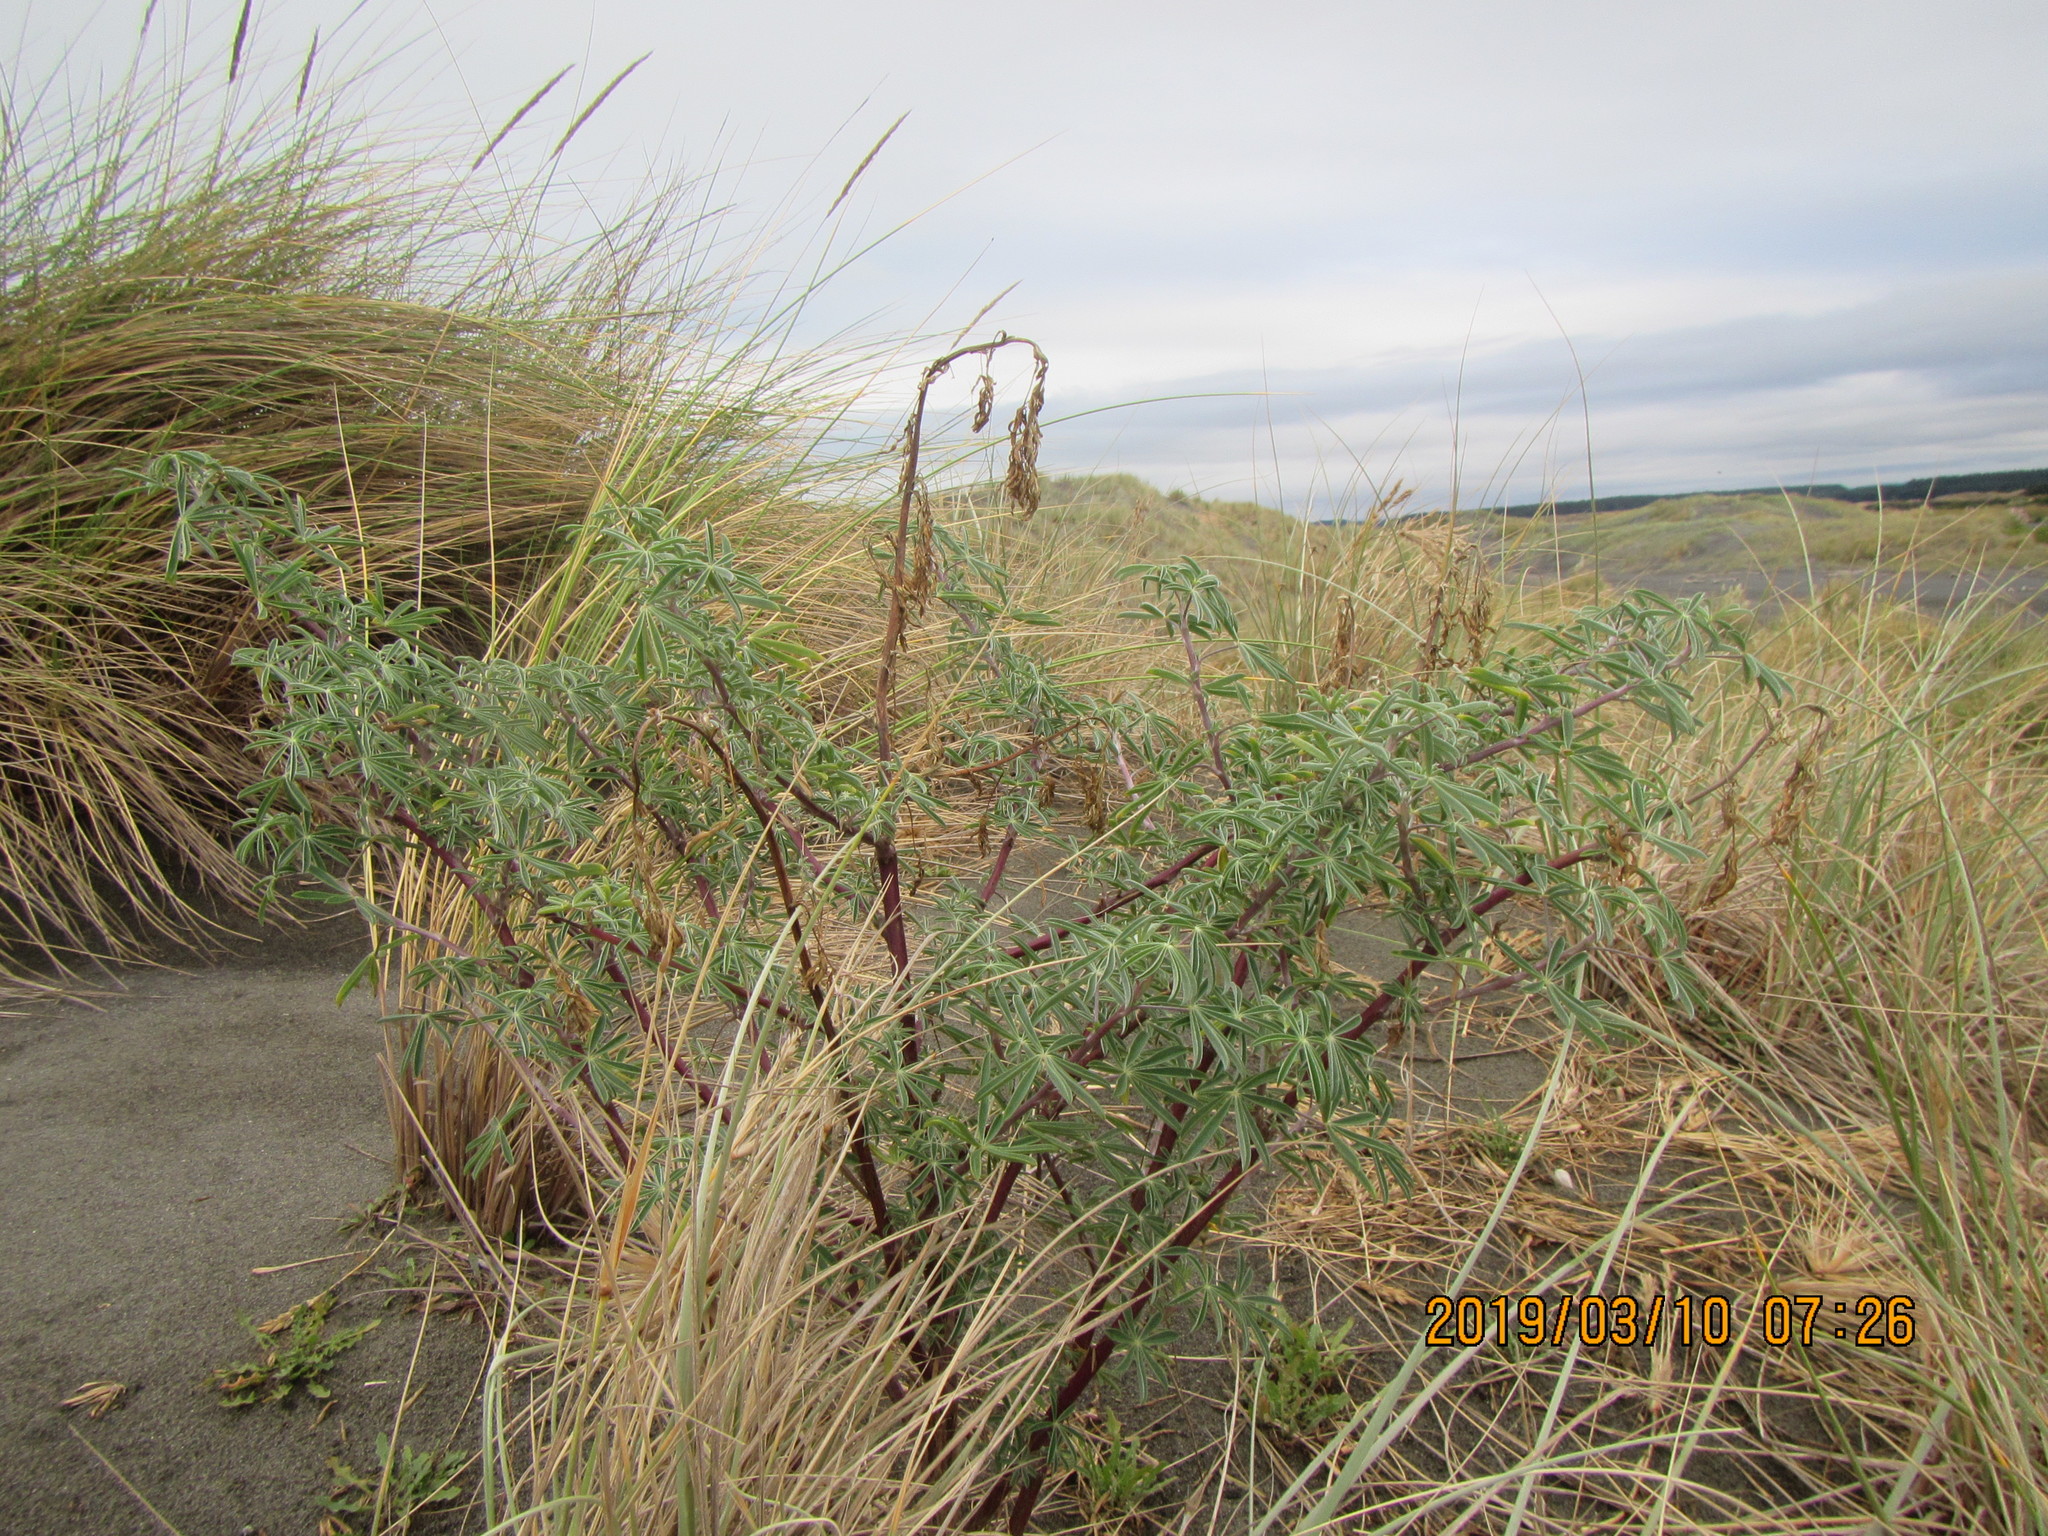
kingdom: Plantae
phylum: Tracheophyta
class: Magnoliopsida
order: Fabales
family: Fabaceae
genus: Lupinus
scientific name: Lupinus arboreus
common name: Yellow bush lupine
